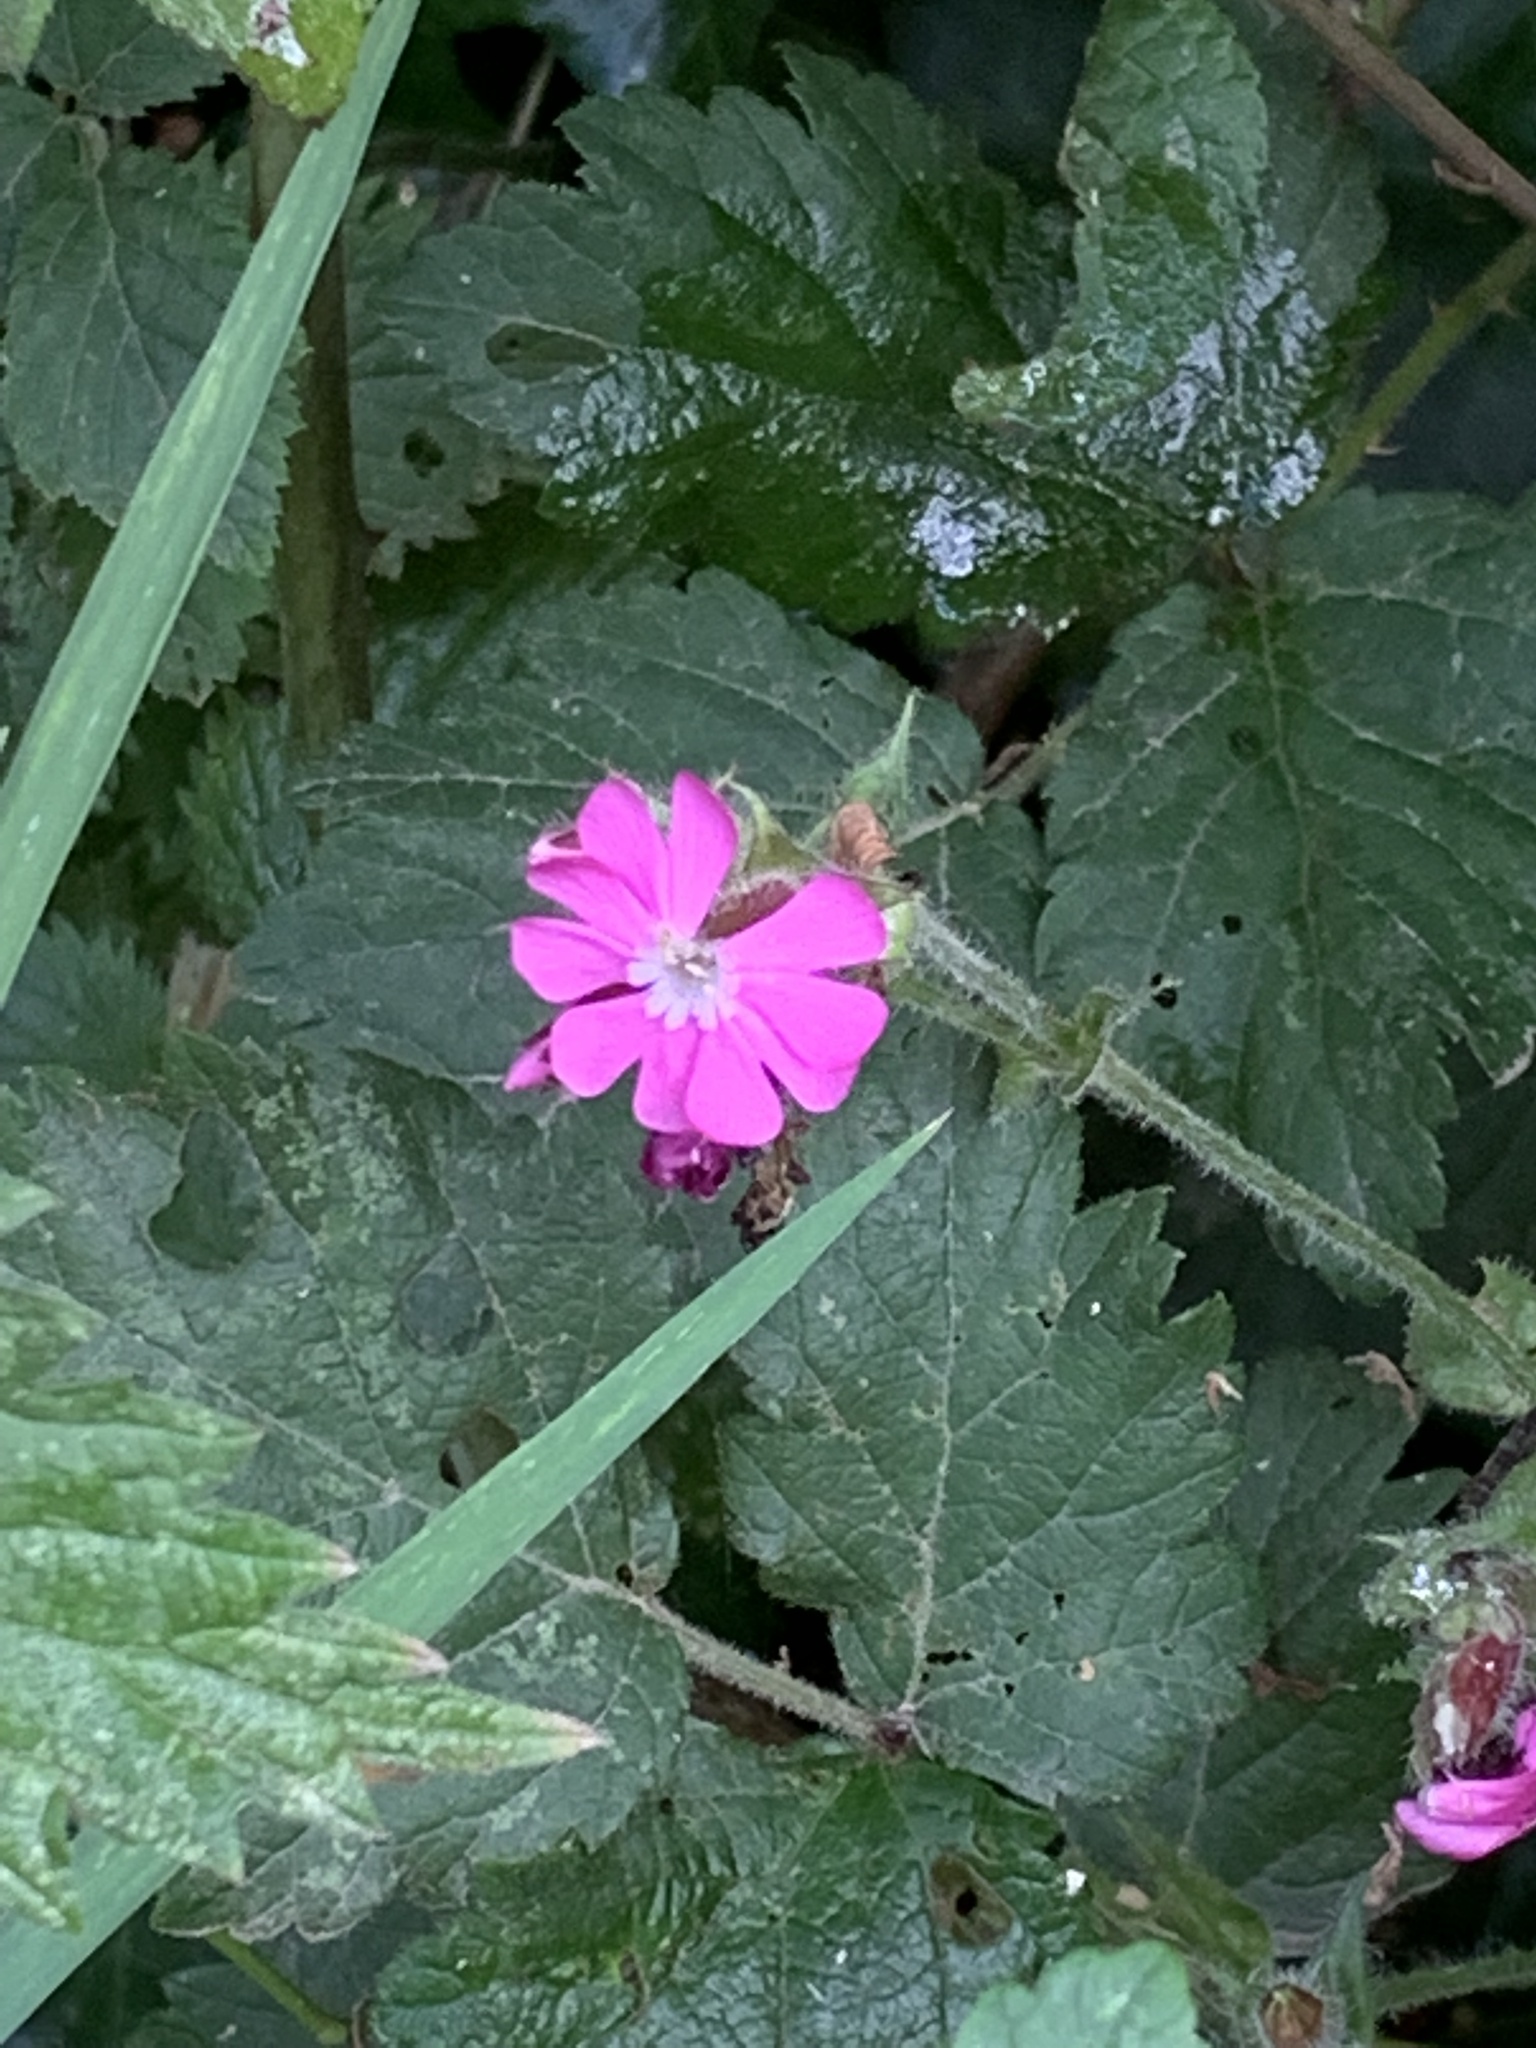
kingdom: Plantae
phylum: Tracheophyta
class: Magnoliopsida
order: Caryophyllales
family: Caryophyllaceae
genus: Silene
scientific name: Silene dioica
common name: Red campion
